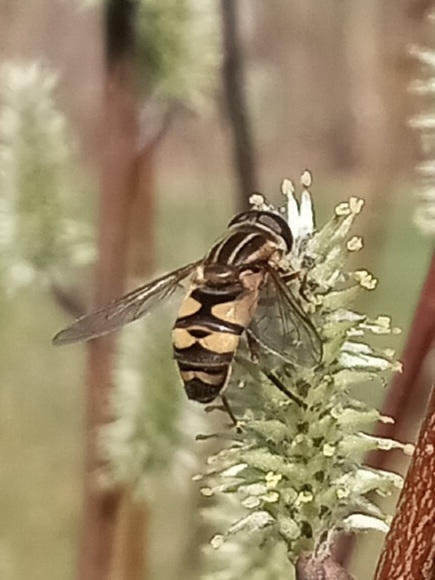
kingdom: Animalia
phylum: Arthropoda
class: Insecta
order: Diptera
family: Syrphidae
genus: Helophilus
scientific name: Helophilus fasciatus
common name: Narrow-headed marsh fly
